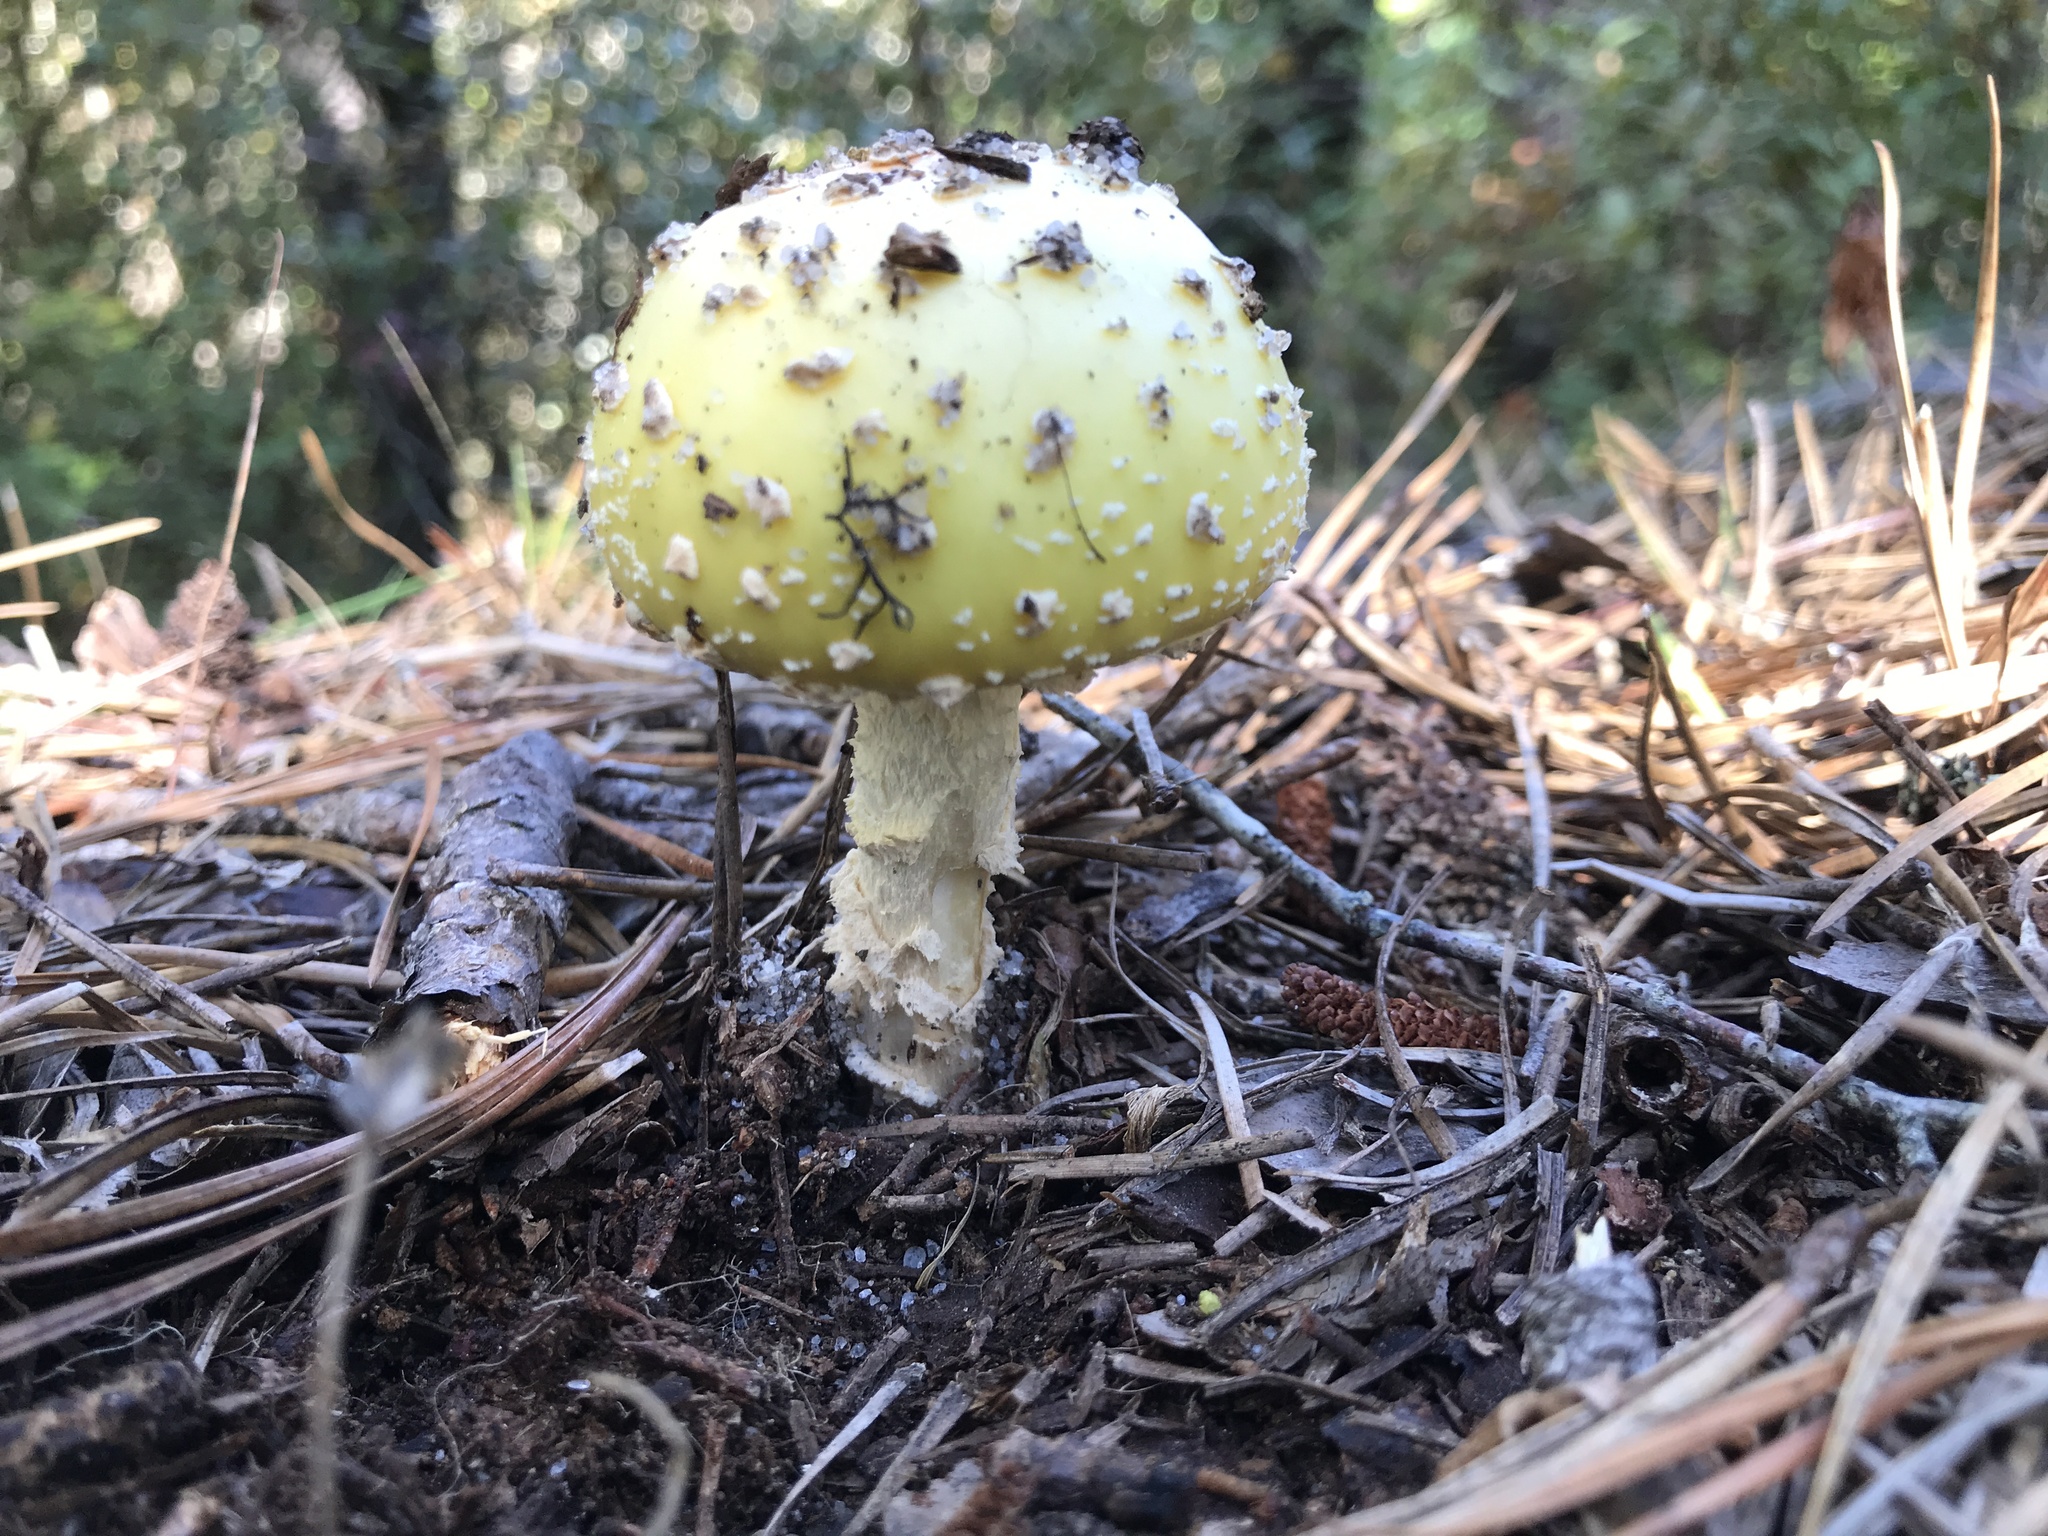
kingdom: Fungi
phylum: Basidiomycota
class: Agaricomycetes
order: Agaricales
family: Amanitaceae
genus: Amanita
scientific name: Amanita muscaria
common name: Fly agaric
